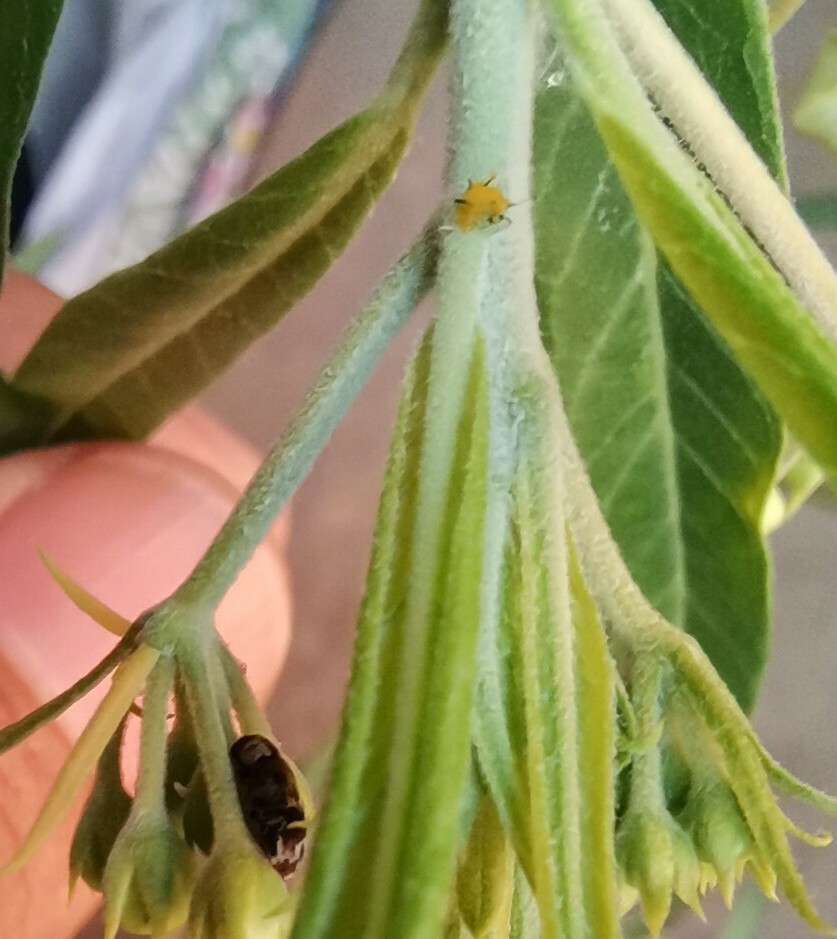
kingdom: Animalia
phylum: Arthropoda
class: Insecta
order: Hemiptera
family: Aphididae
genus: Aphis
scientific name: Aphis nerii
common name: Oleander aphid
